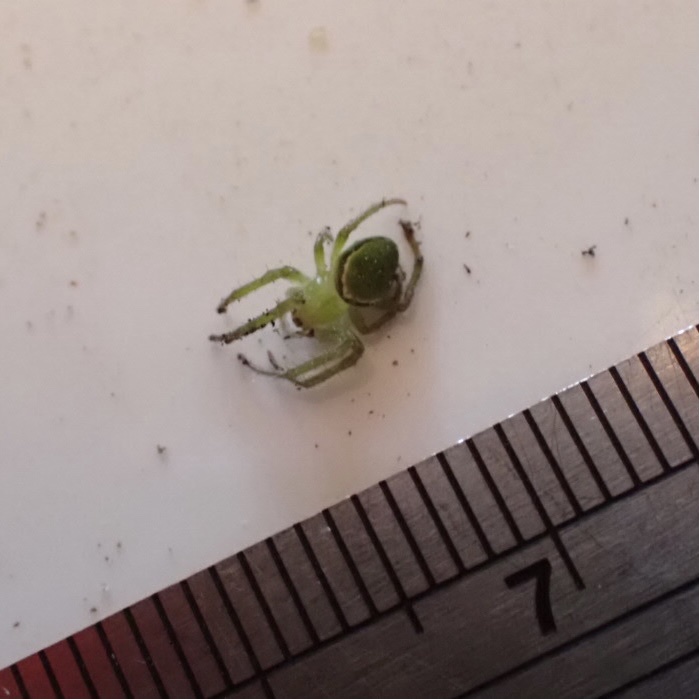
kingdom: Animalia
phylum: Arthropoda
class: Arachnida
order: Araneae
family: Araneidae
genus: Colaranea
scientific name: Colaranea viriditas
